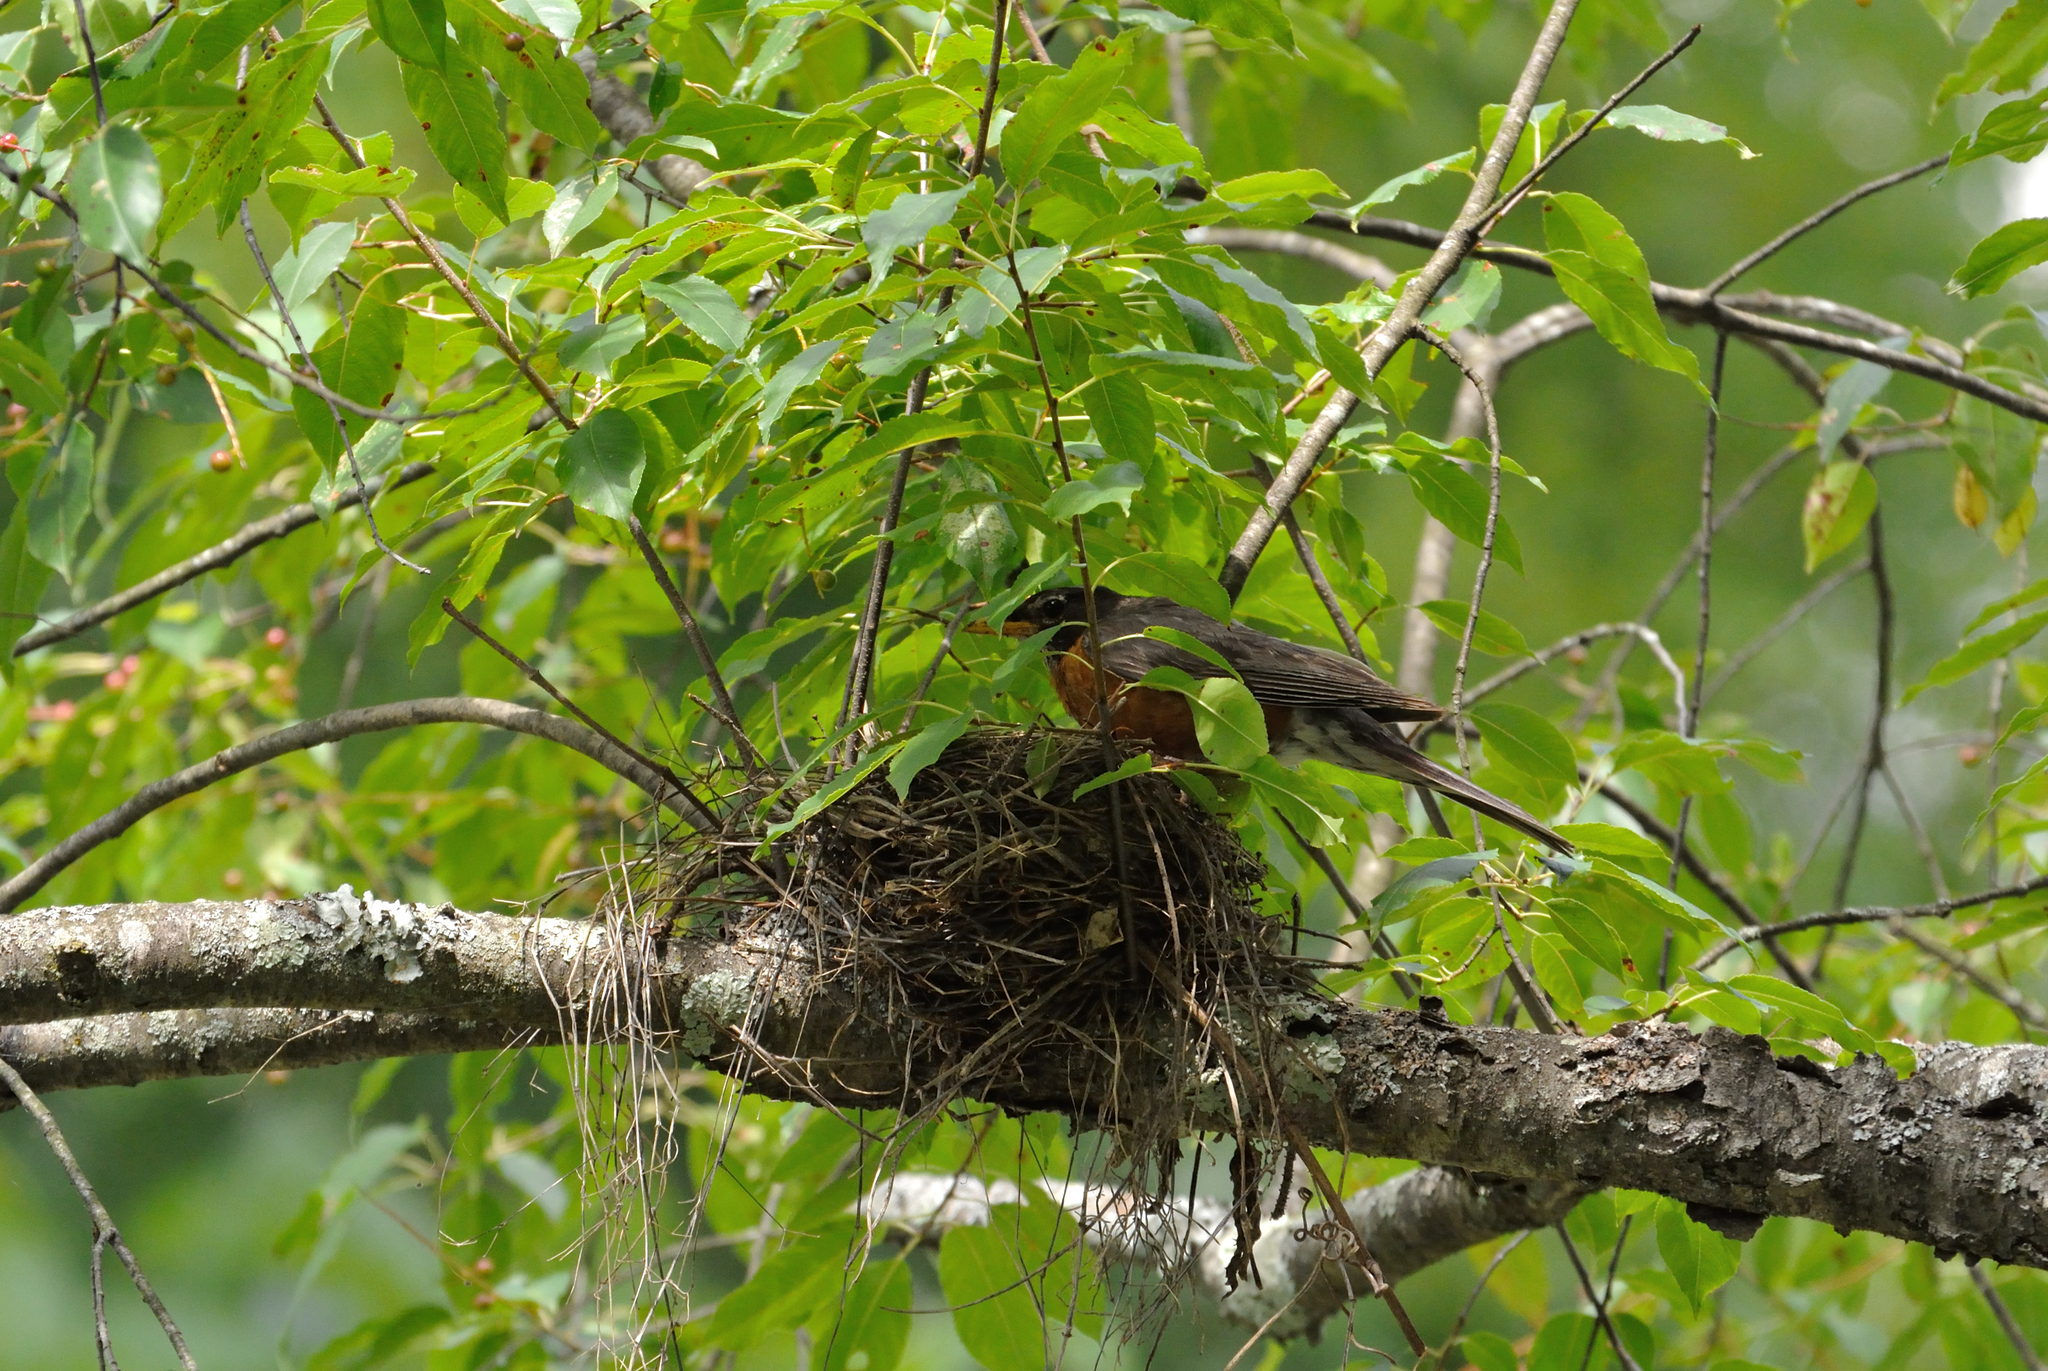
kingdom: Animalia
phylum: Chordata
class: Aves
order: Passeriformes
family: Turdidae
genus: Turdus
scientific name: Turdus migratorius
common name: American robin
